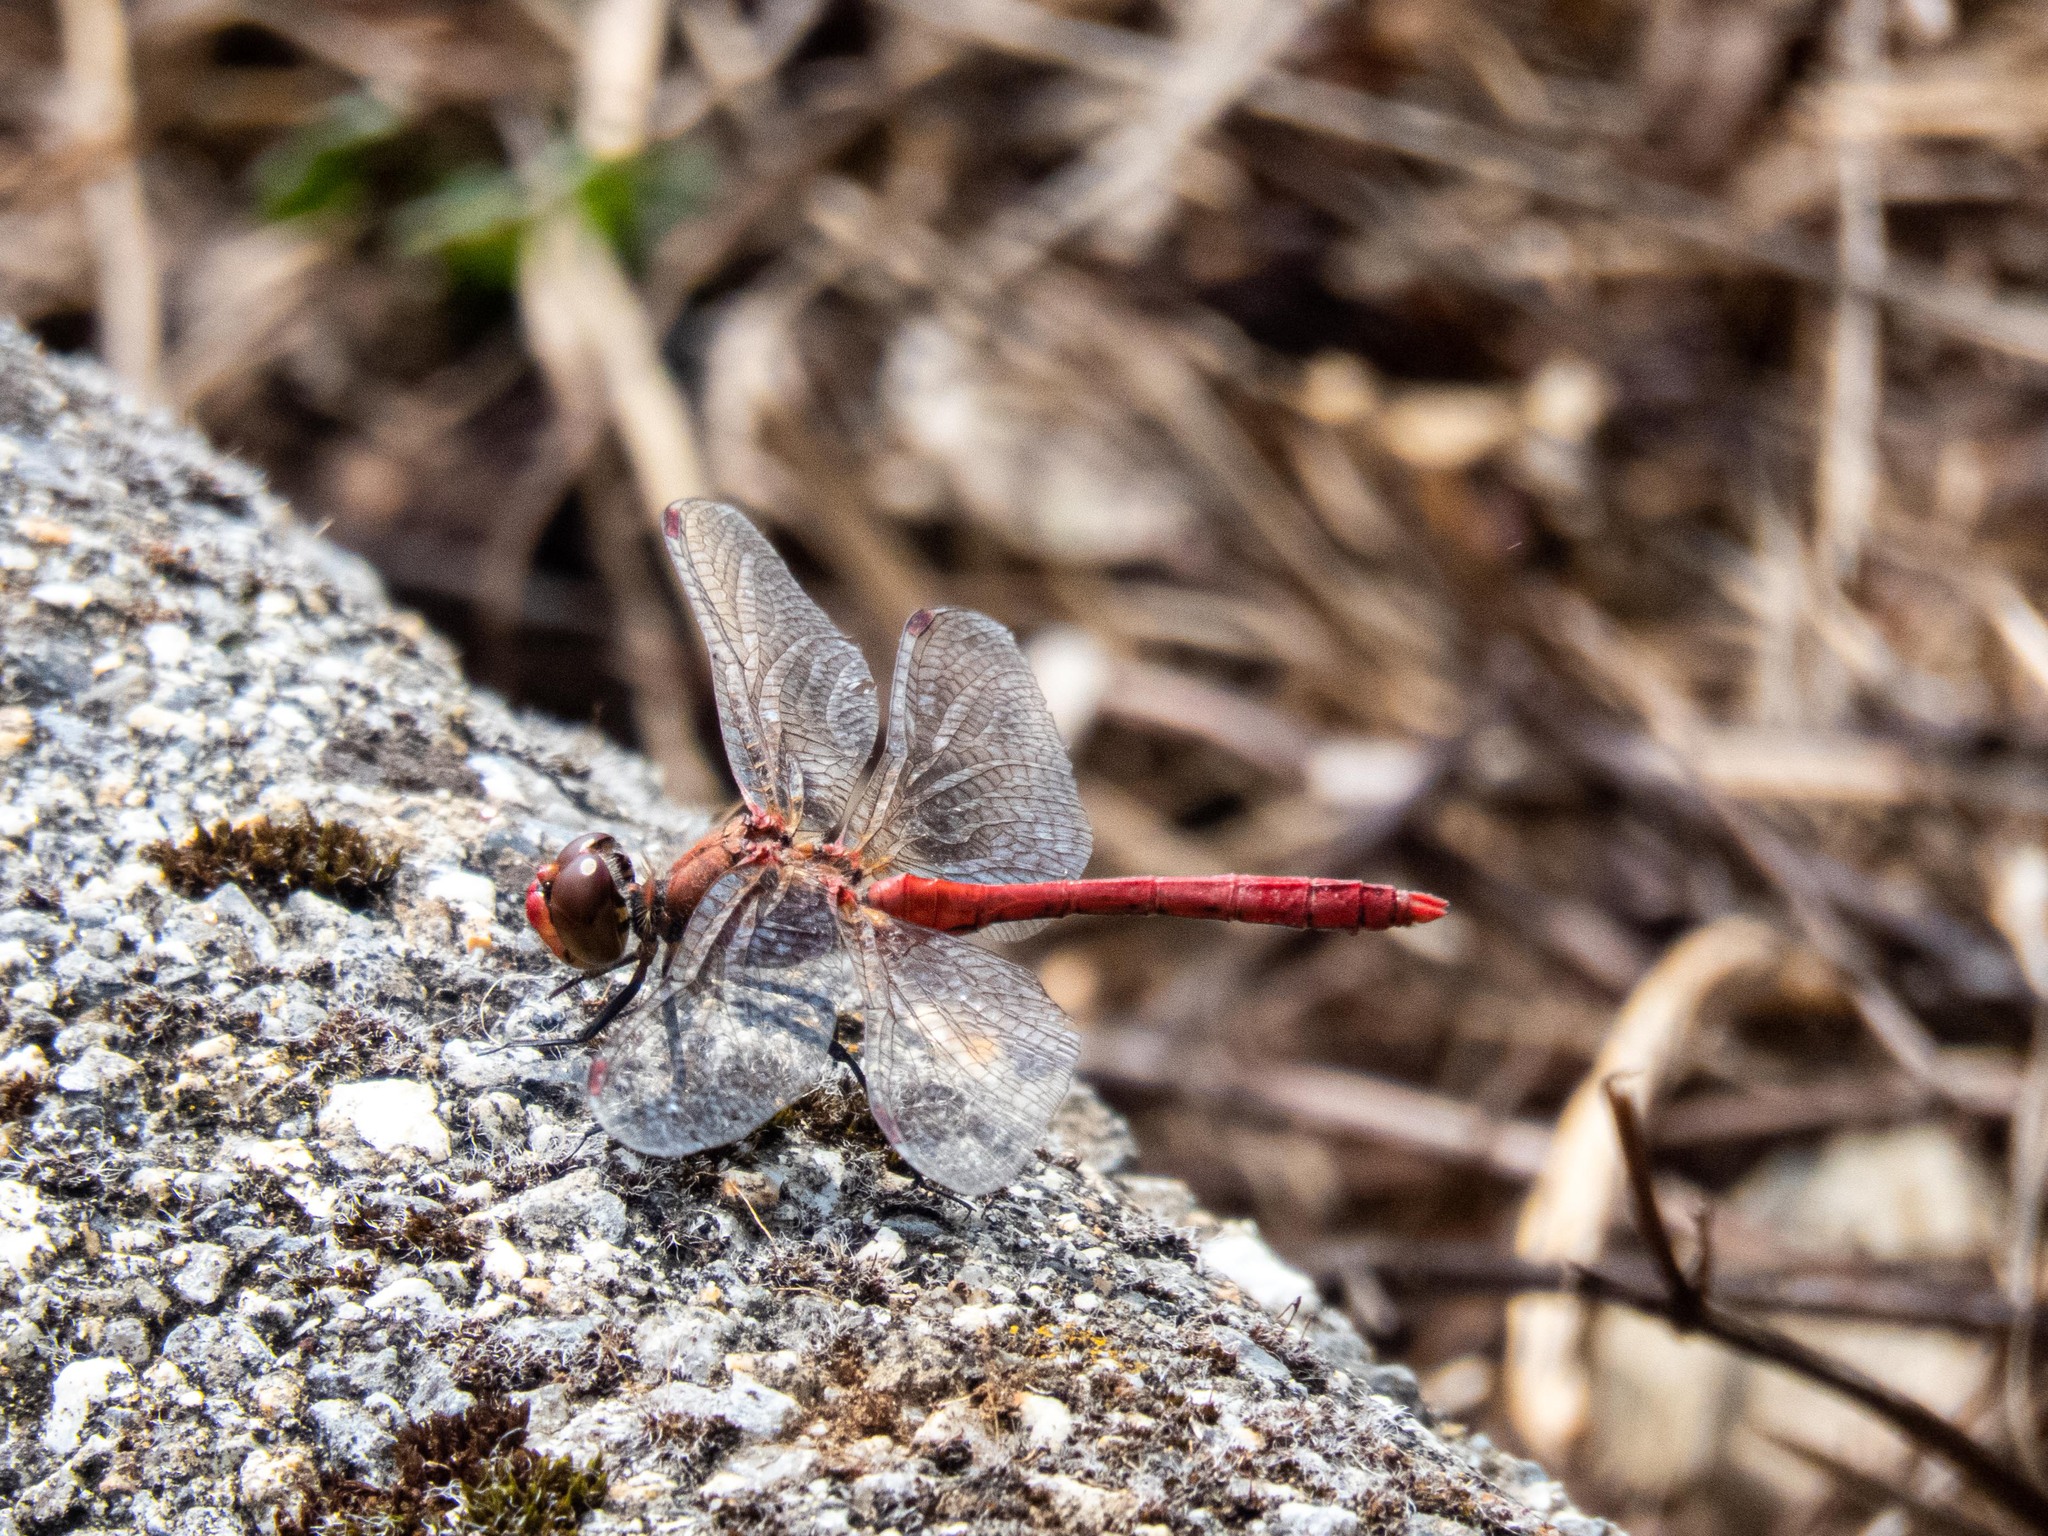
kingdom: Animalia
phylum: Arthropoda
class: Insecta
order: Odonata
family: Libellulidae
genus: Sympetrum
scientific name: Sympetrum sanguineum
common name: Ruddy darter
